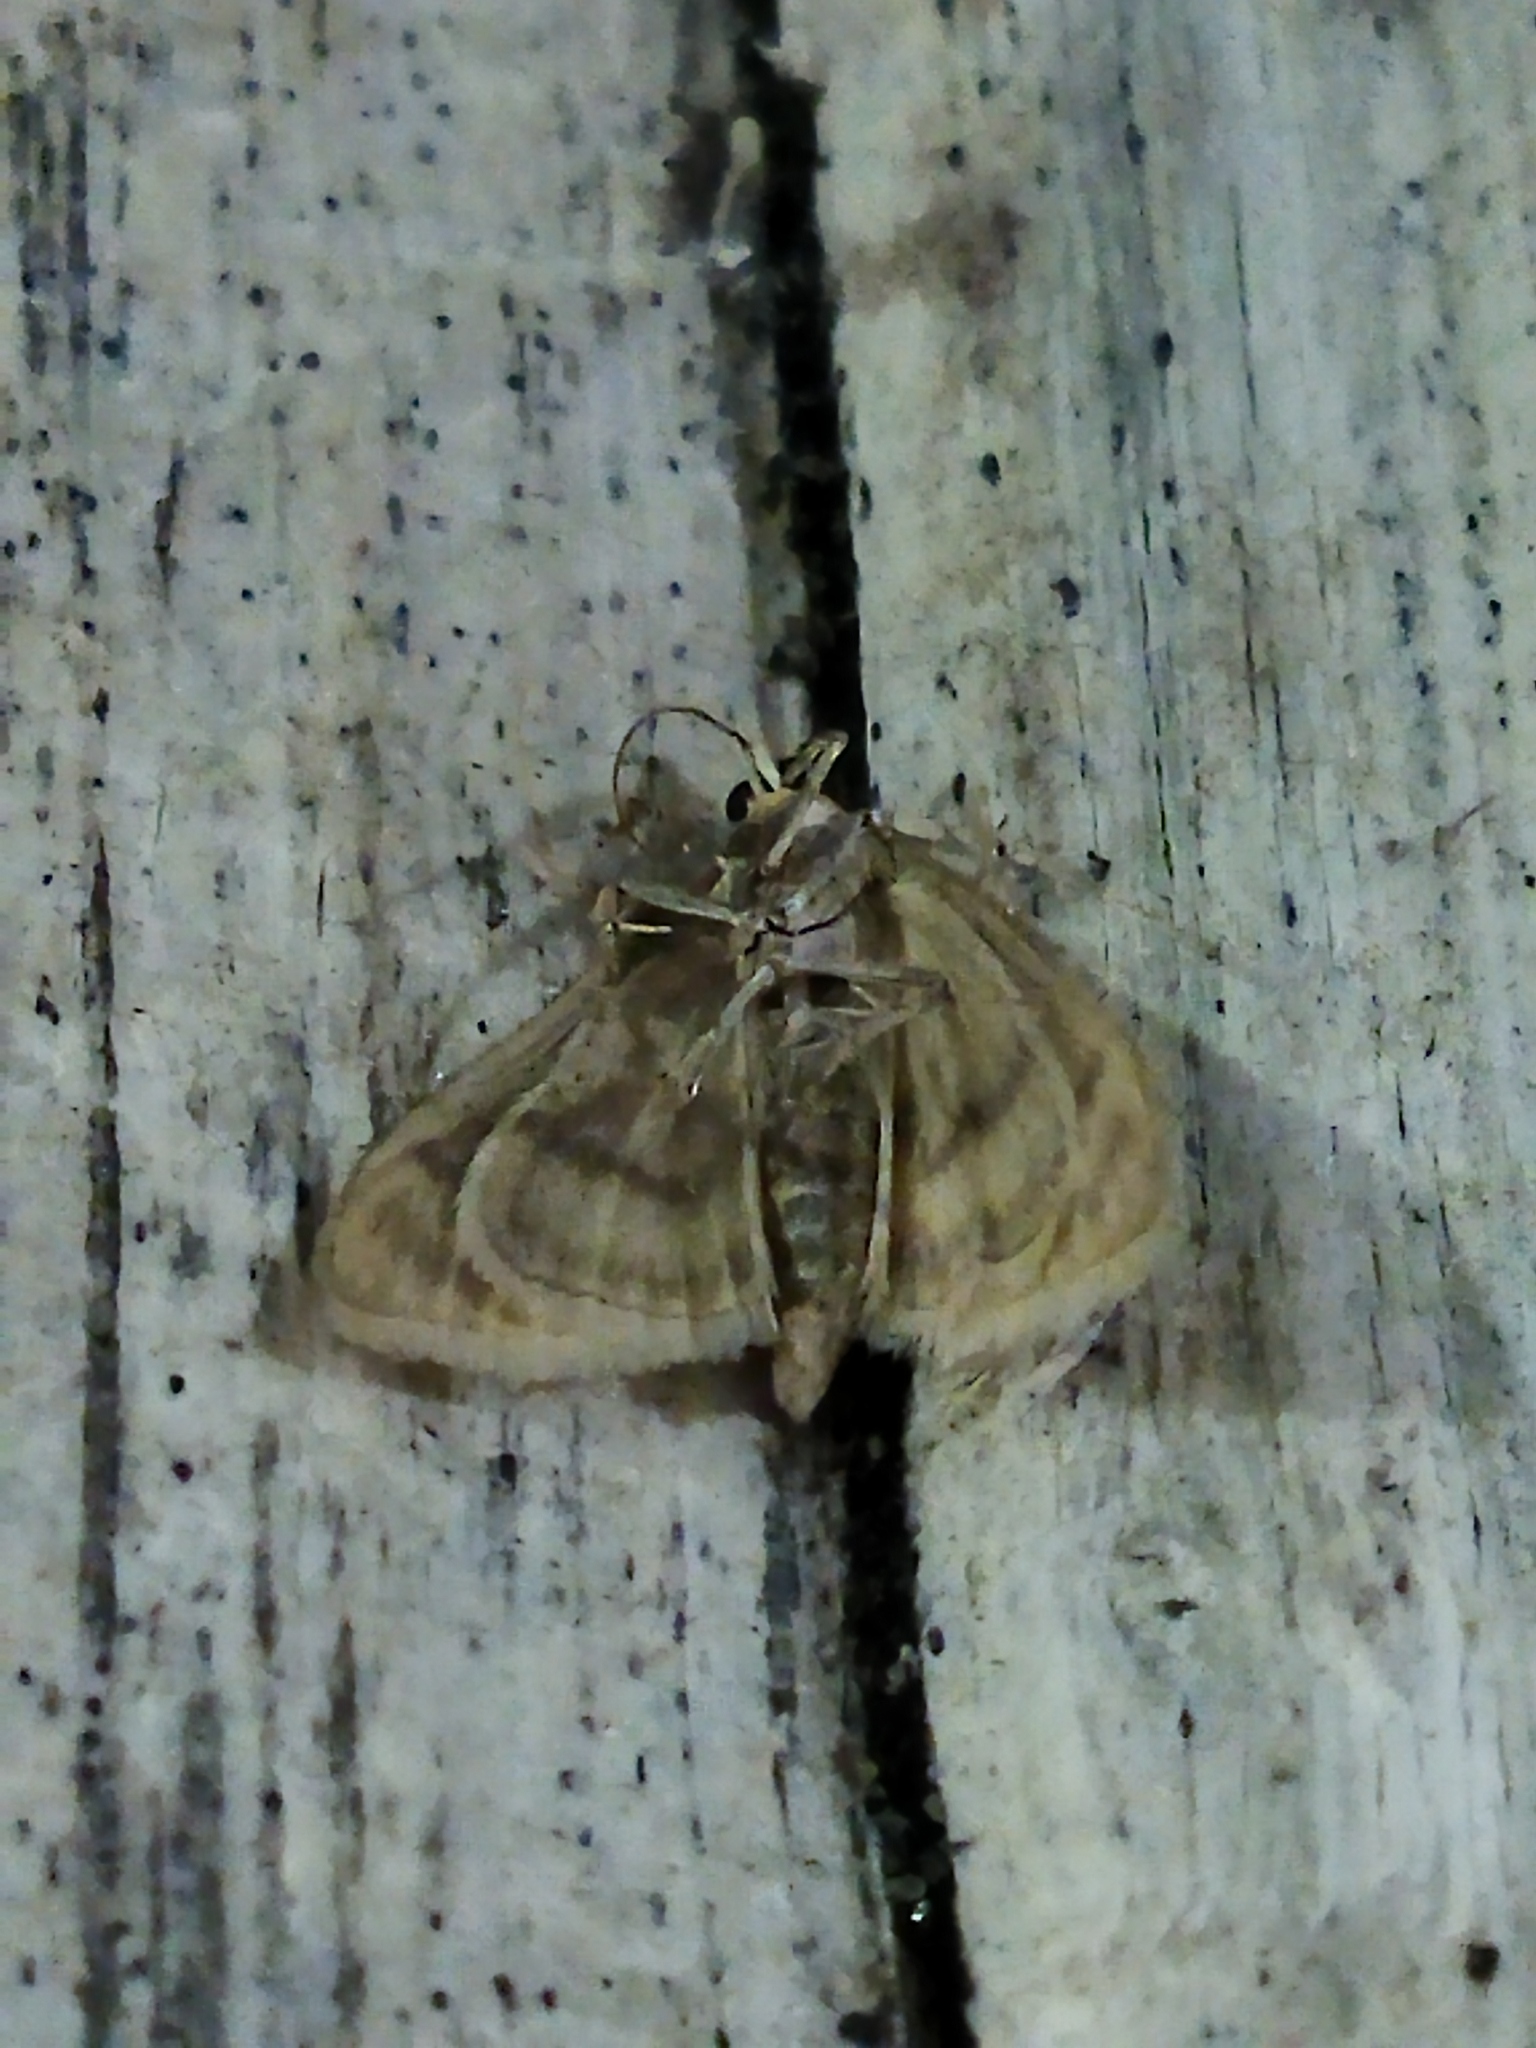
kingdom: Animalia
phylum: Arthropoda
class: Insecta
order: Lepidoptera
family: Crambidae
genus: Paracorsia
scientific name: Paracorsia repandalis
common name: Mullein moth
